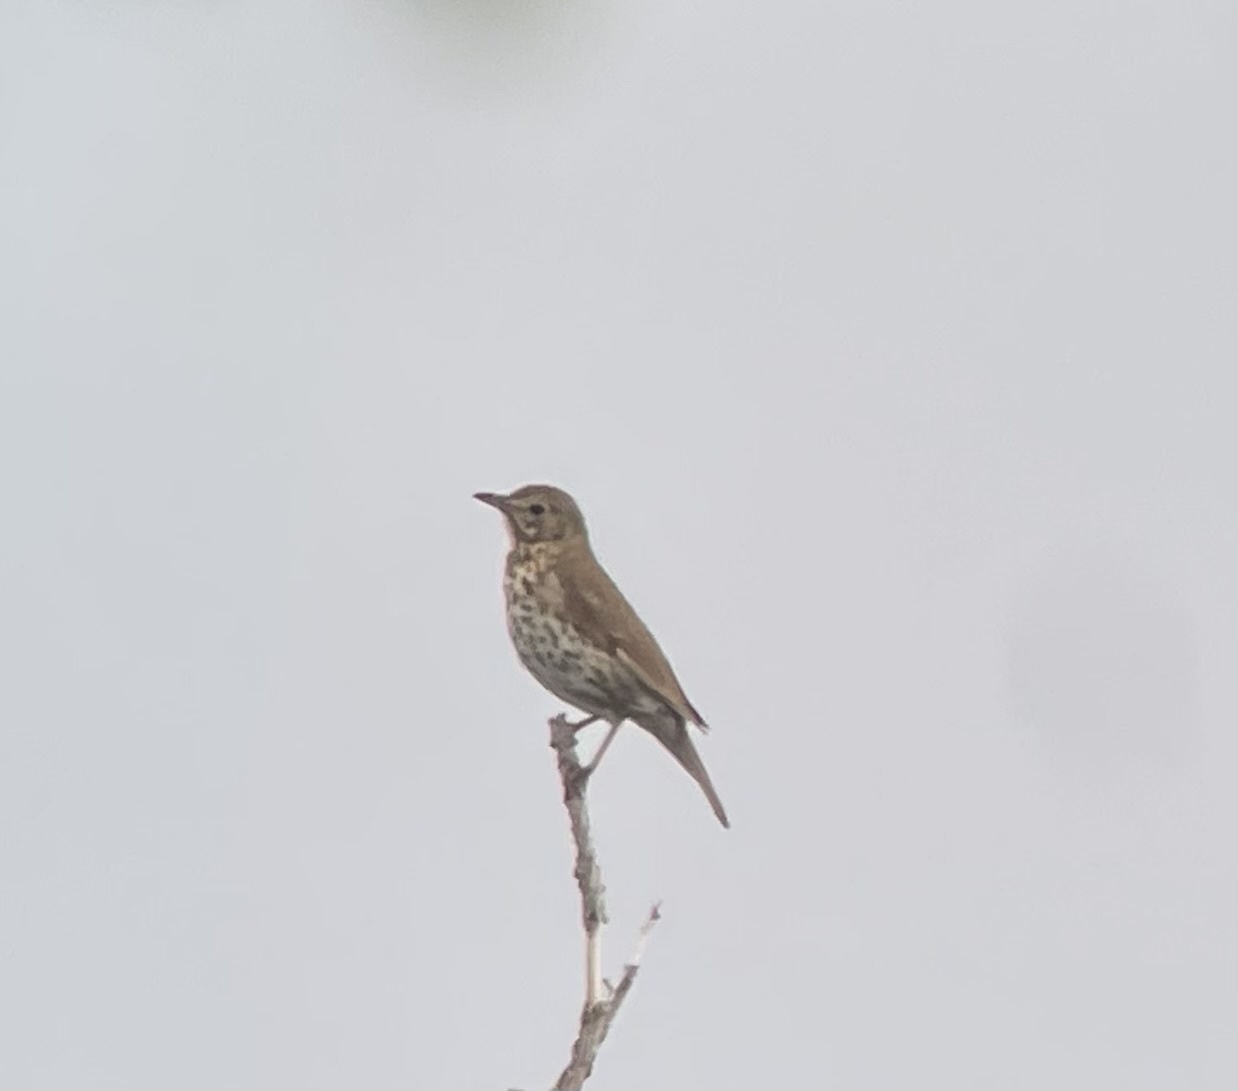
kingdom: Animalia
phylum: Chordata
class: Aves
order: Passeriformes
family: Turdidae
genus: Turdus
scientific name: Turdus philomelos
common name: Song thrush
